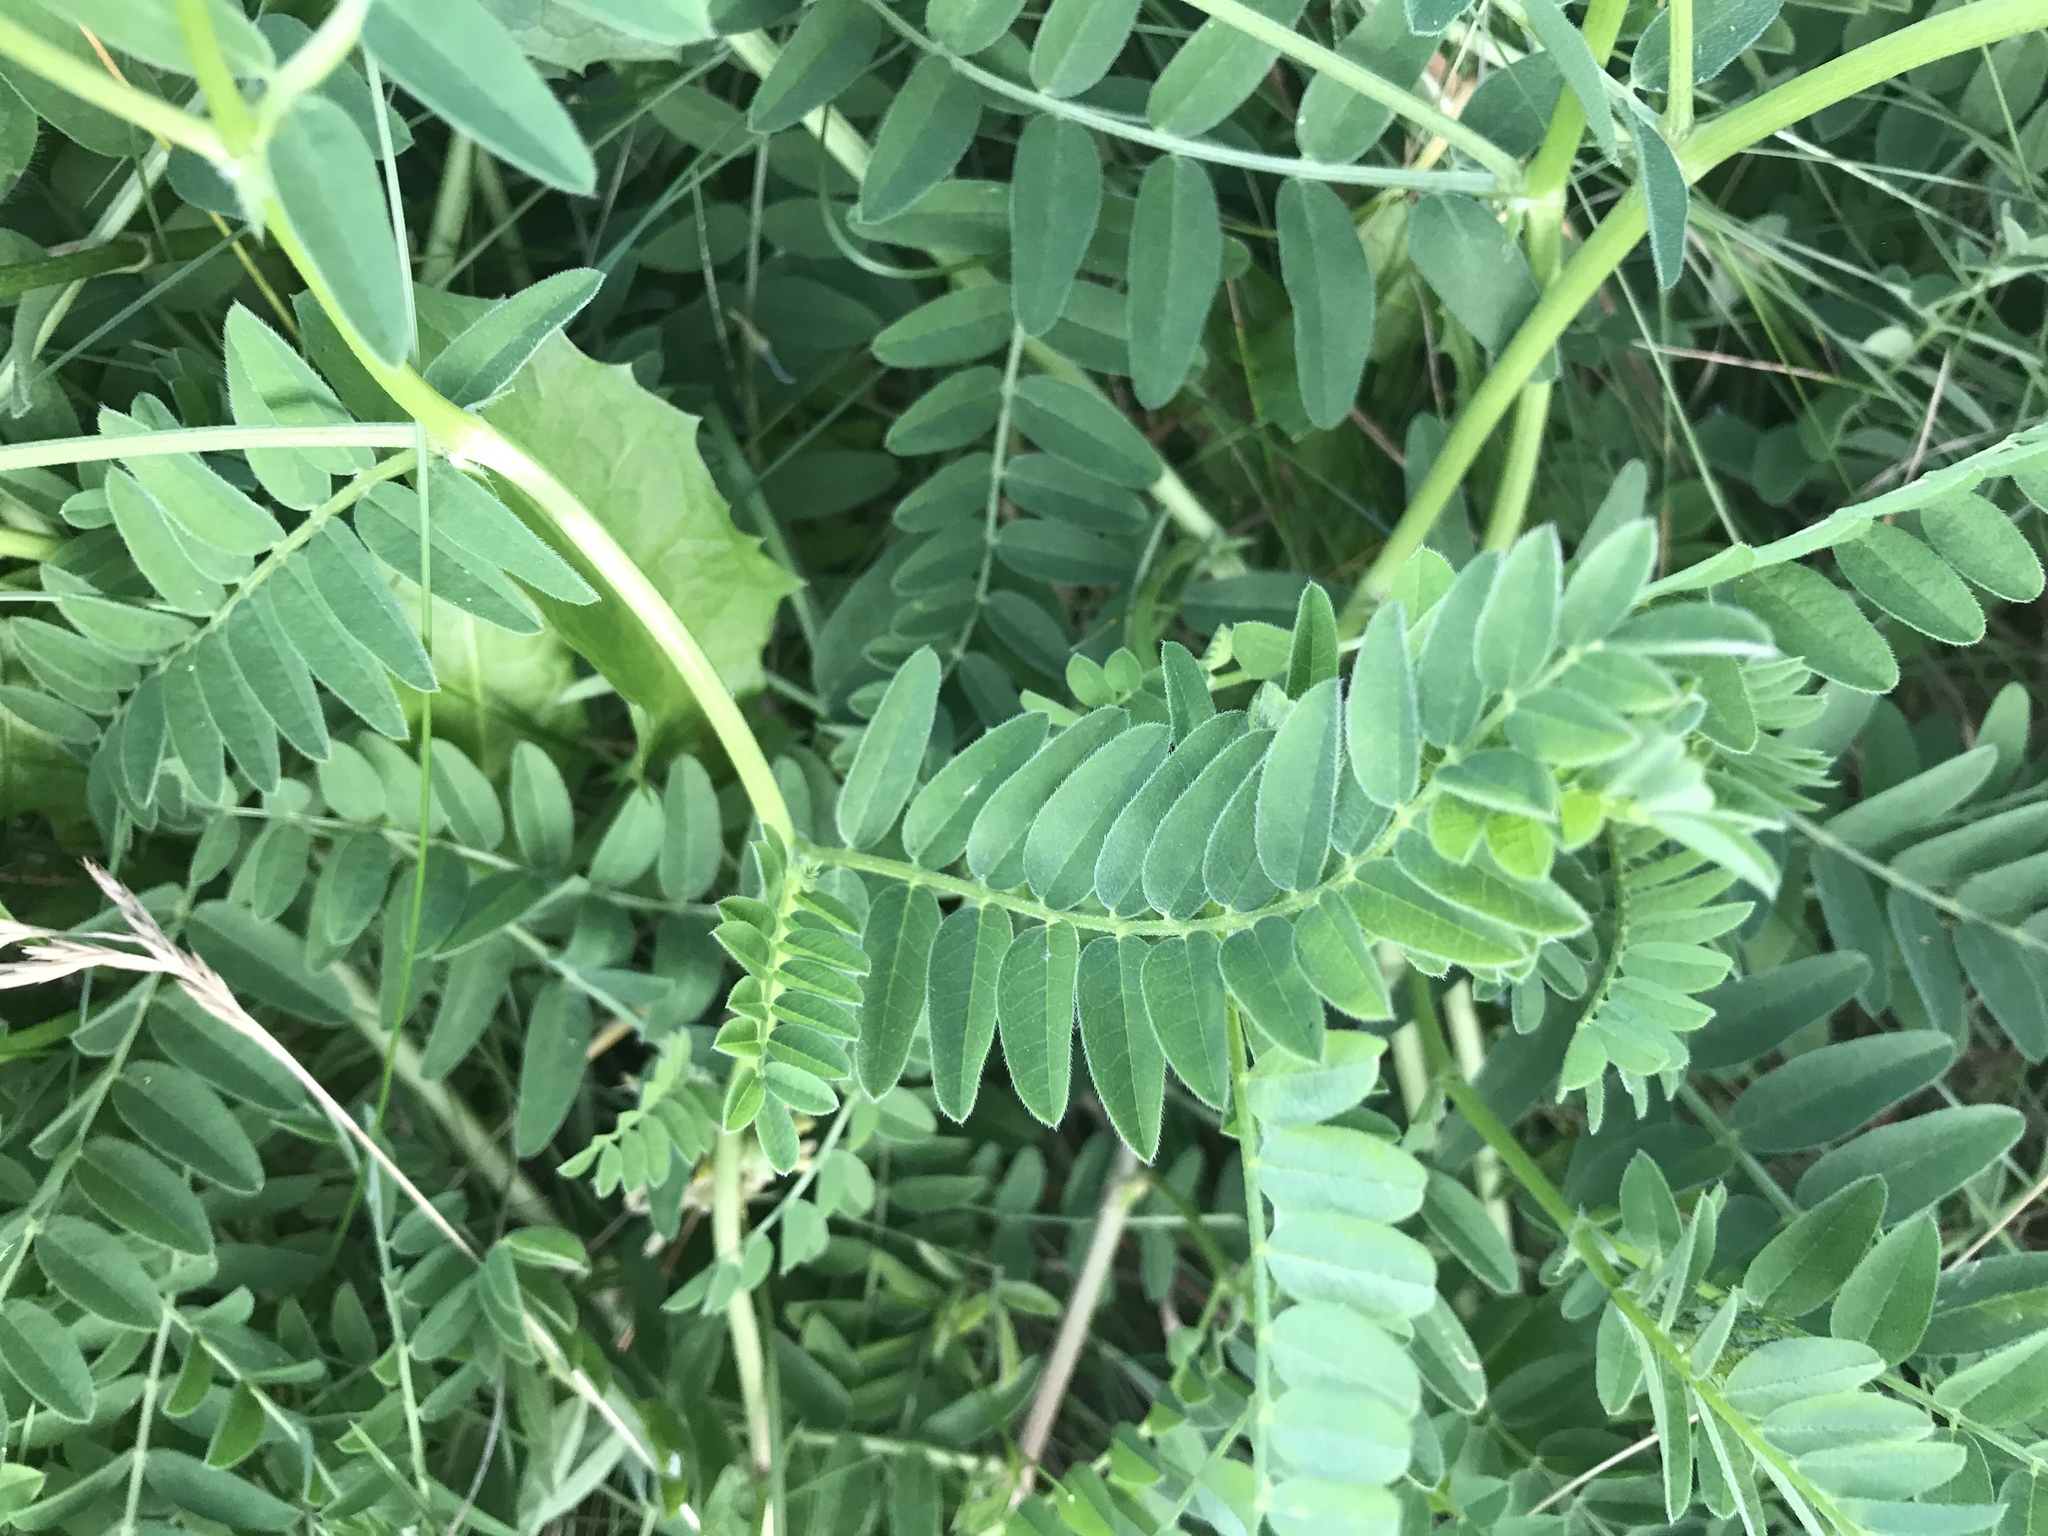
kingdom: Plantae
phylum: Tracheophyta
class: Magnoliopsida
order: Fabales
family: Fabaceae
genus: Astragalus
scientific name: Astragalus cicer
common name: Chick-pea milk-vetch
